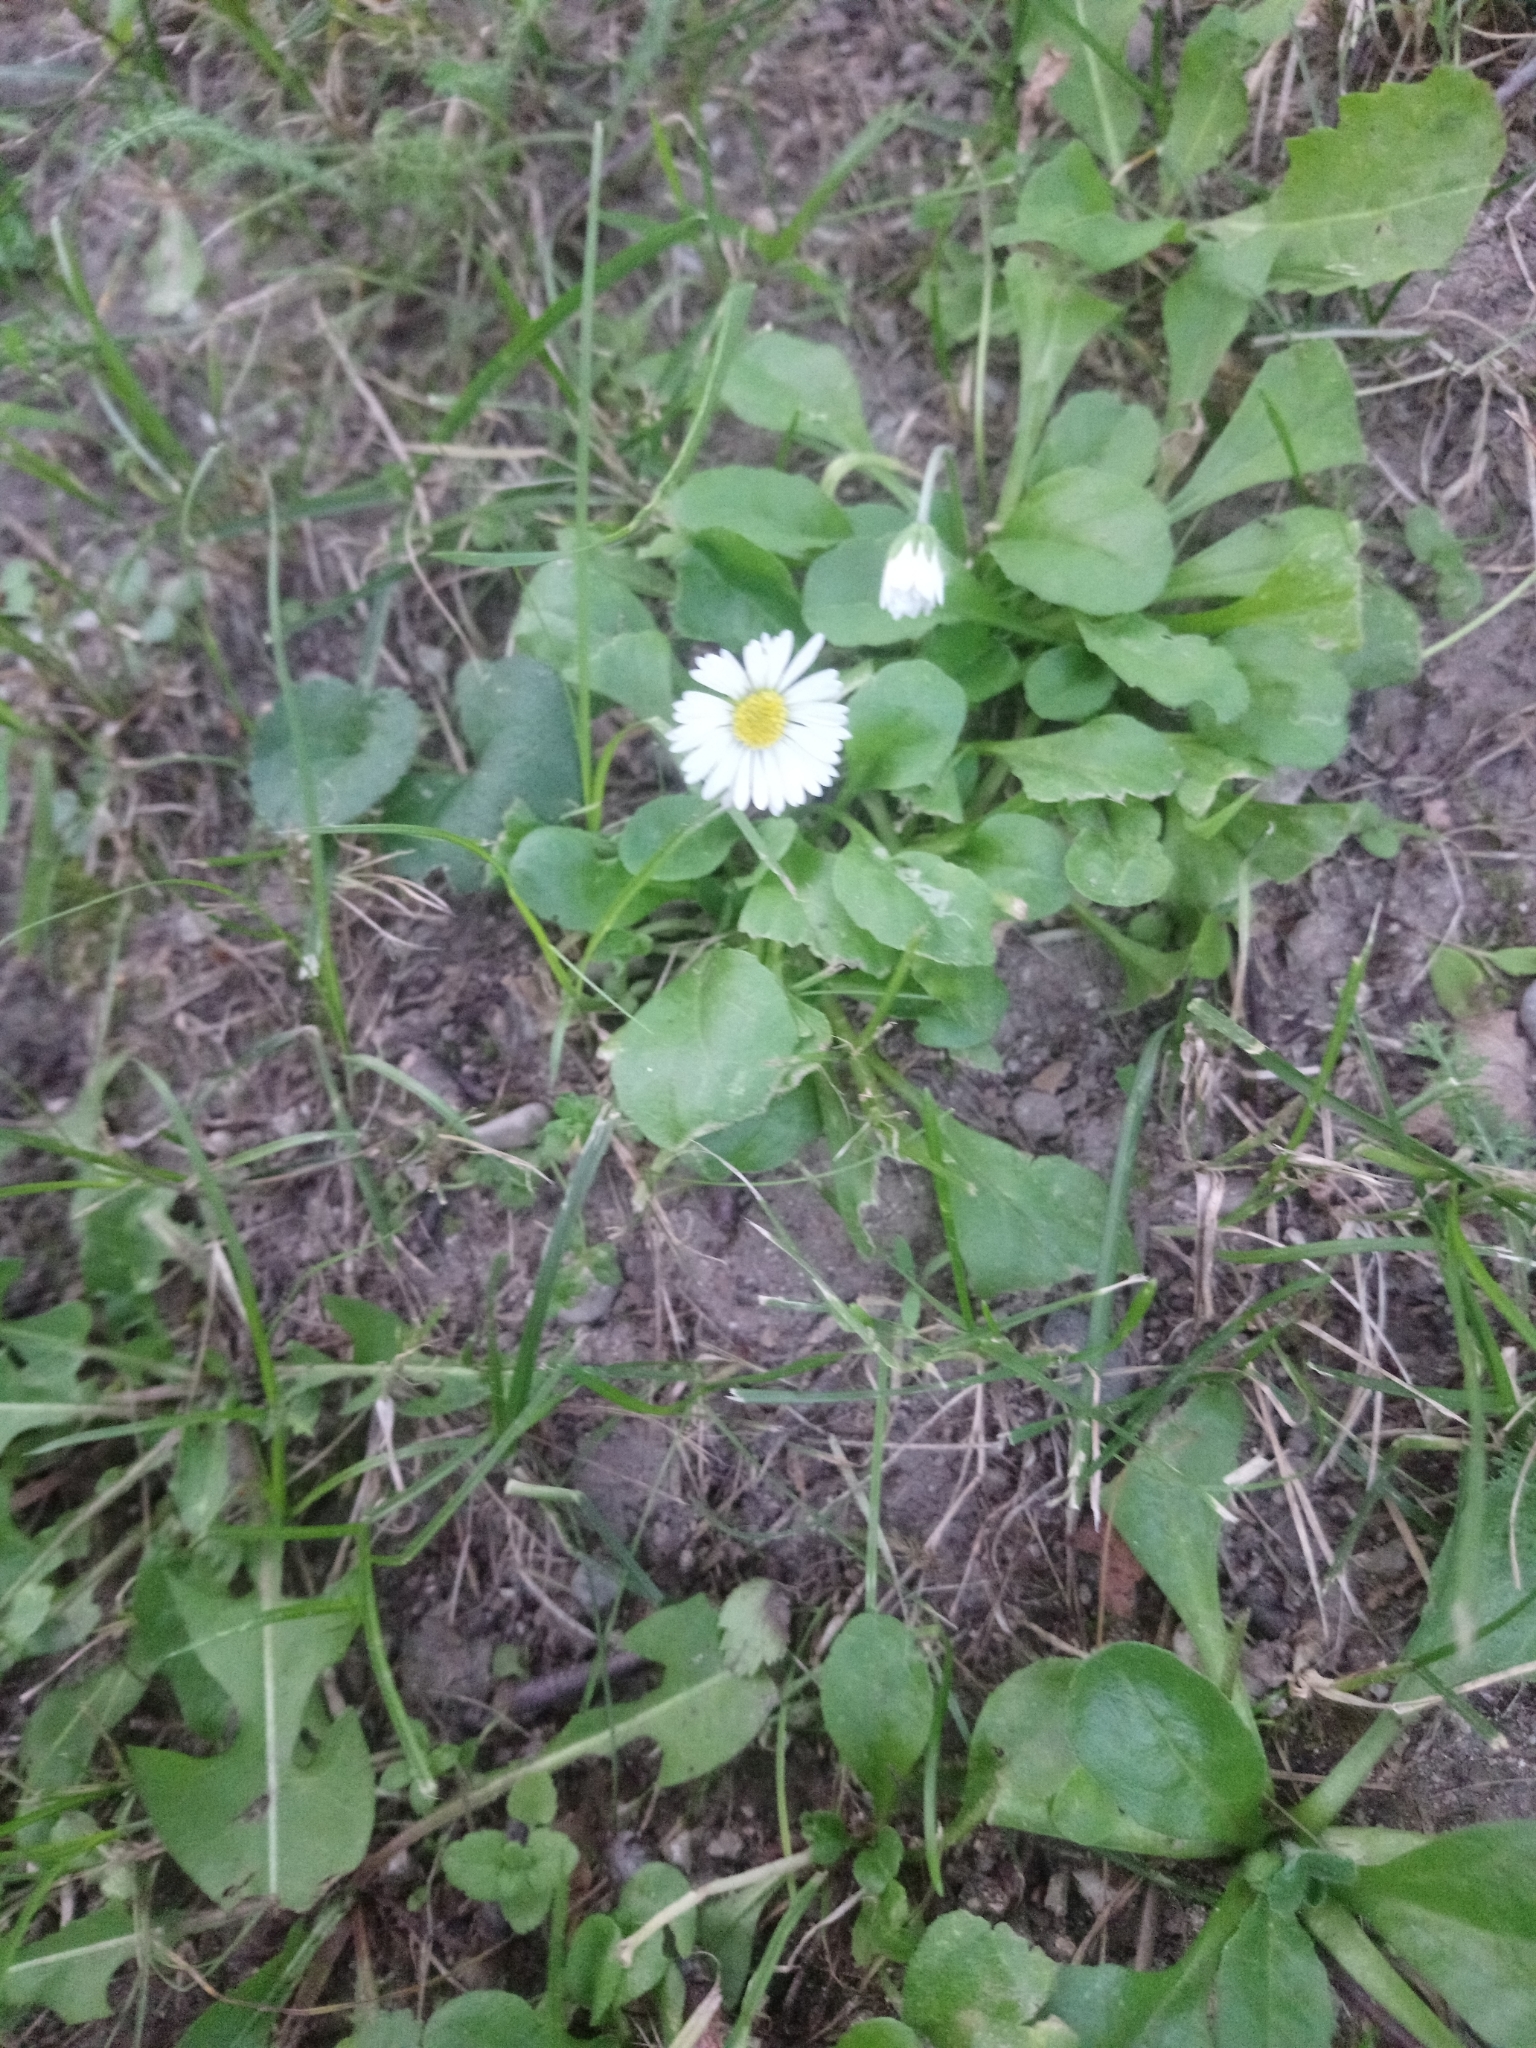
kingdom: Plantae
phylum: Tracheophyta
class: Magnoliopsida
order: Asterales
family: Asteraceae
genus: Bellis
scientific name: Bellis perennis
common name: Lawndaisy
